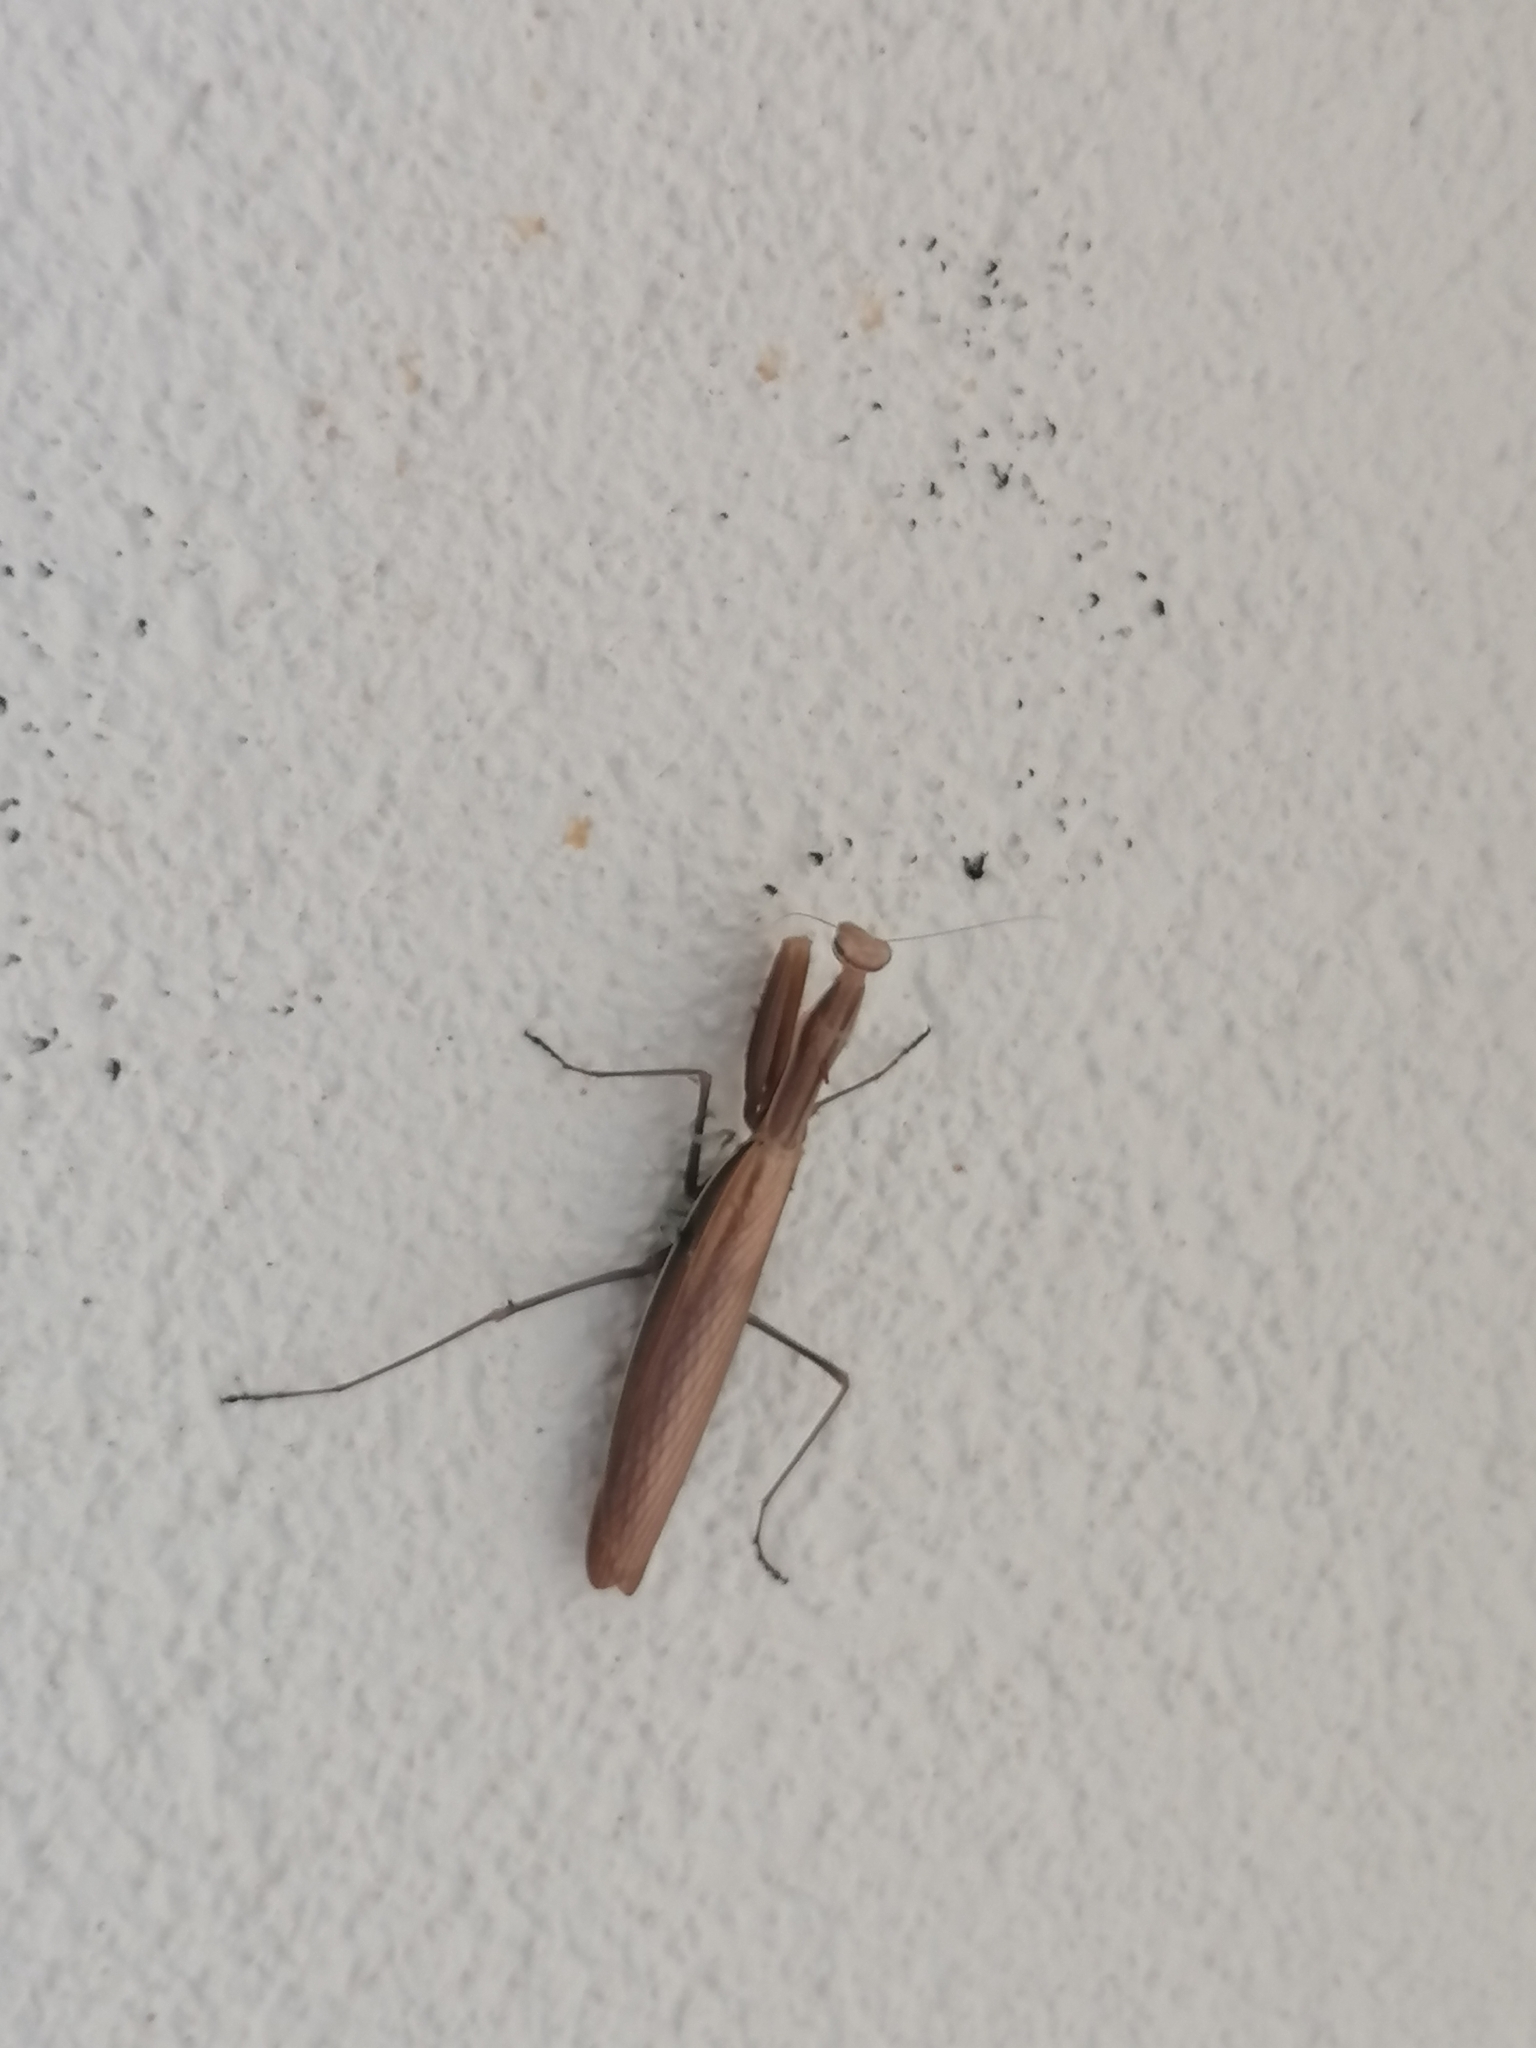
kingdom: Animalia
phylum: Arthropoda
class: Insecta
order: Mantodea
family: Mantidae
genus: Mantis
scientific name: Mantis religiosa
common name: Praying mantis
